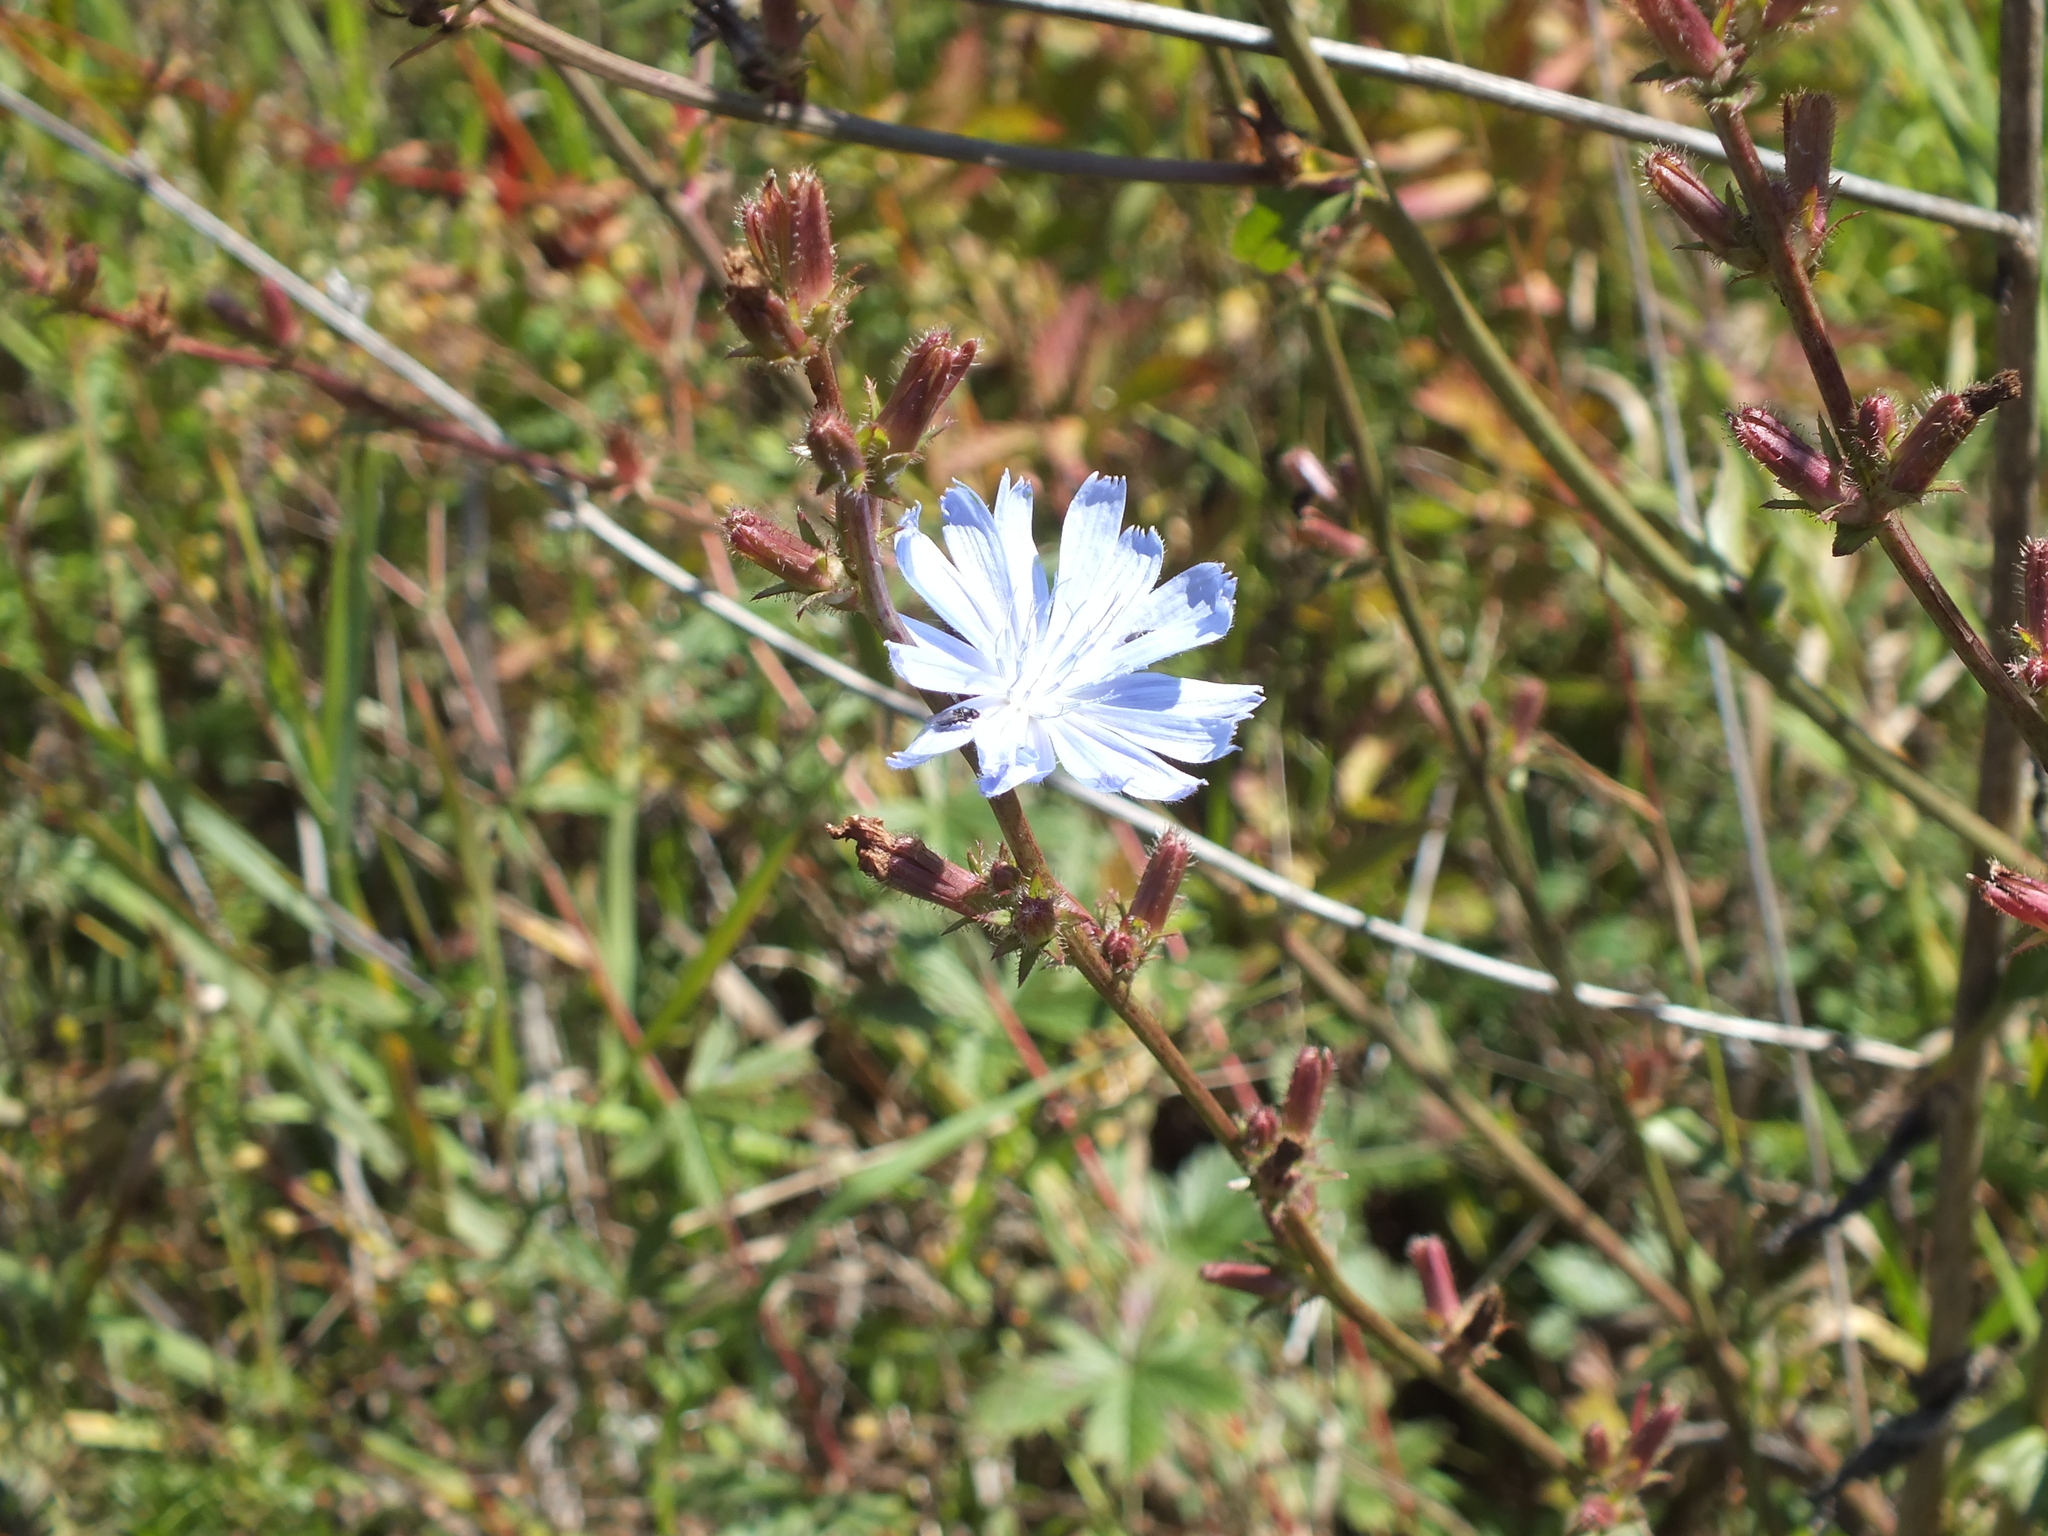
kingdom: Plantae
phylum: Tracheophyta
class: Magnoliopsida
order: Asterales
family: Asteraceae
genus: Cichorium
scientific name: Cichorium intybus
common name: Chicory
